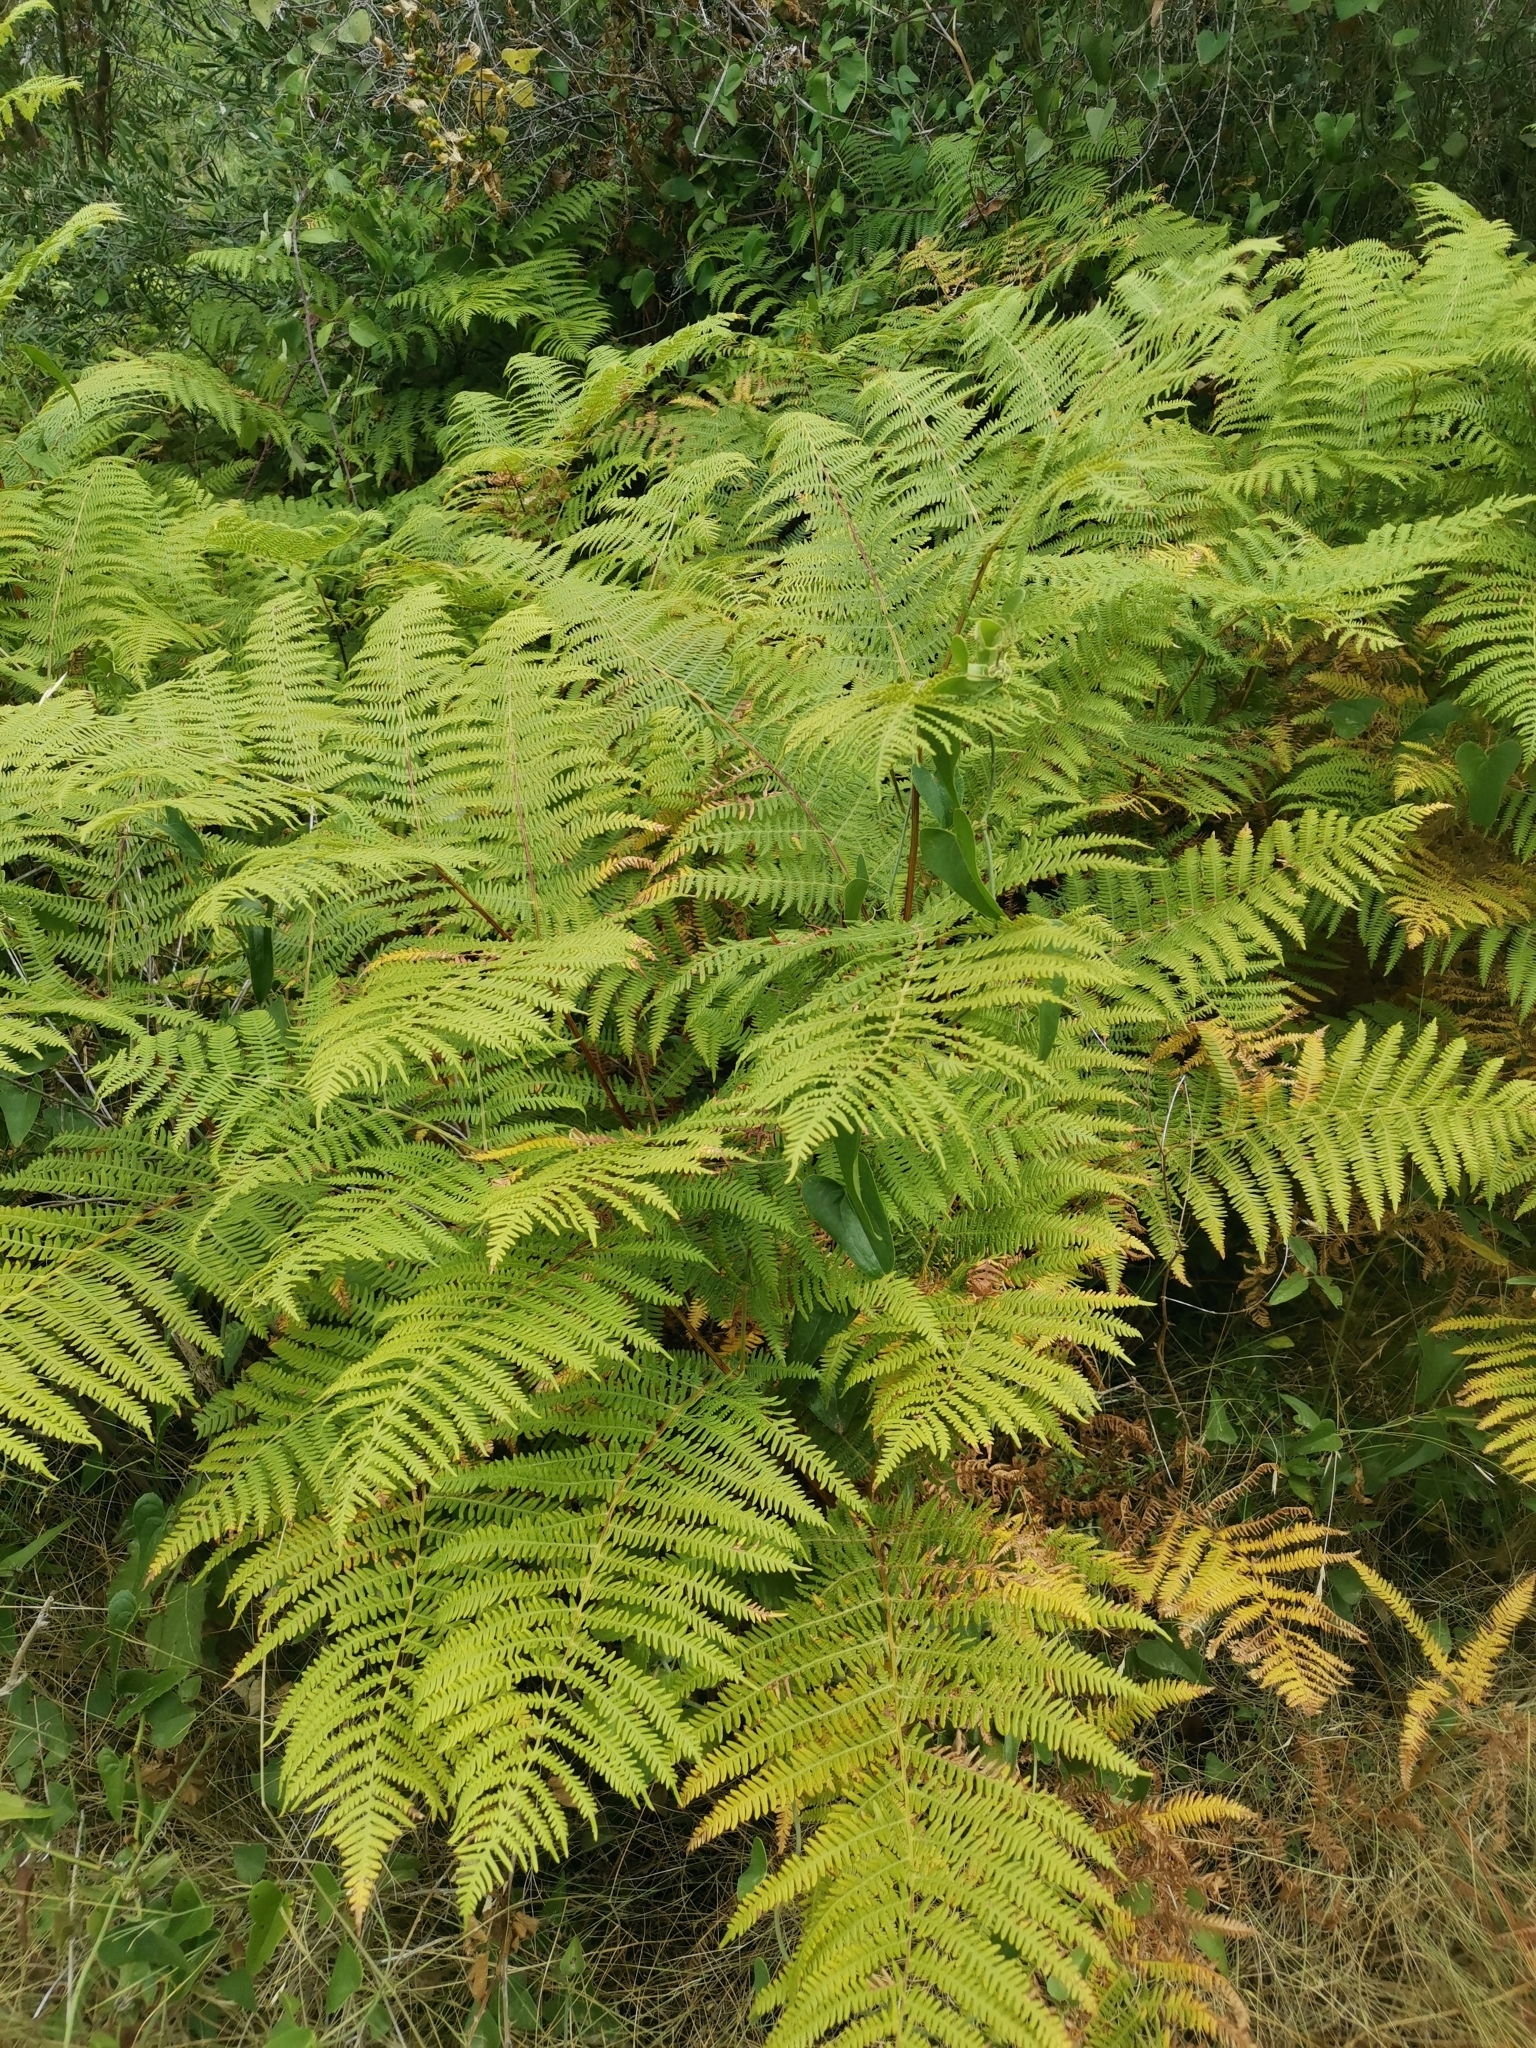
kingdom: Plantae
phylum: Tracheophyta
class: Polypodiopsida
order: Polypodiales
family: Dennstaedtiaceae
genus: Pteridium
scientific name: Pteridium aquilinum
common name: Bracken
